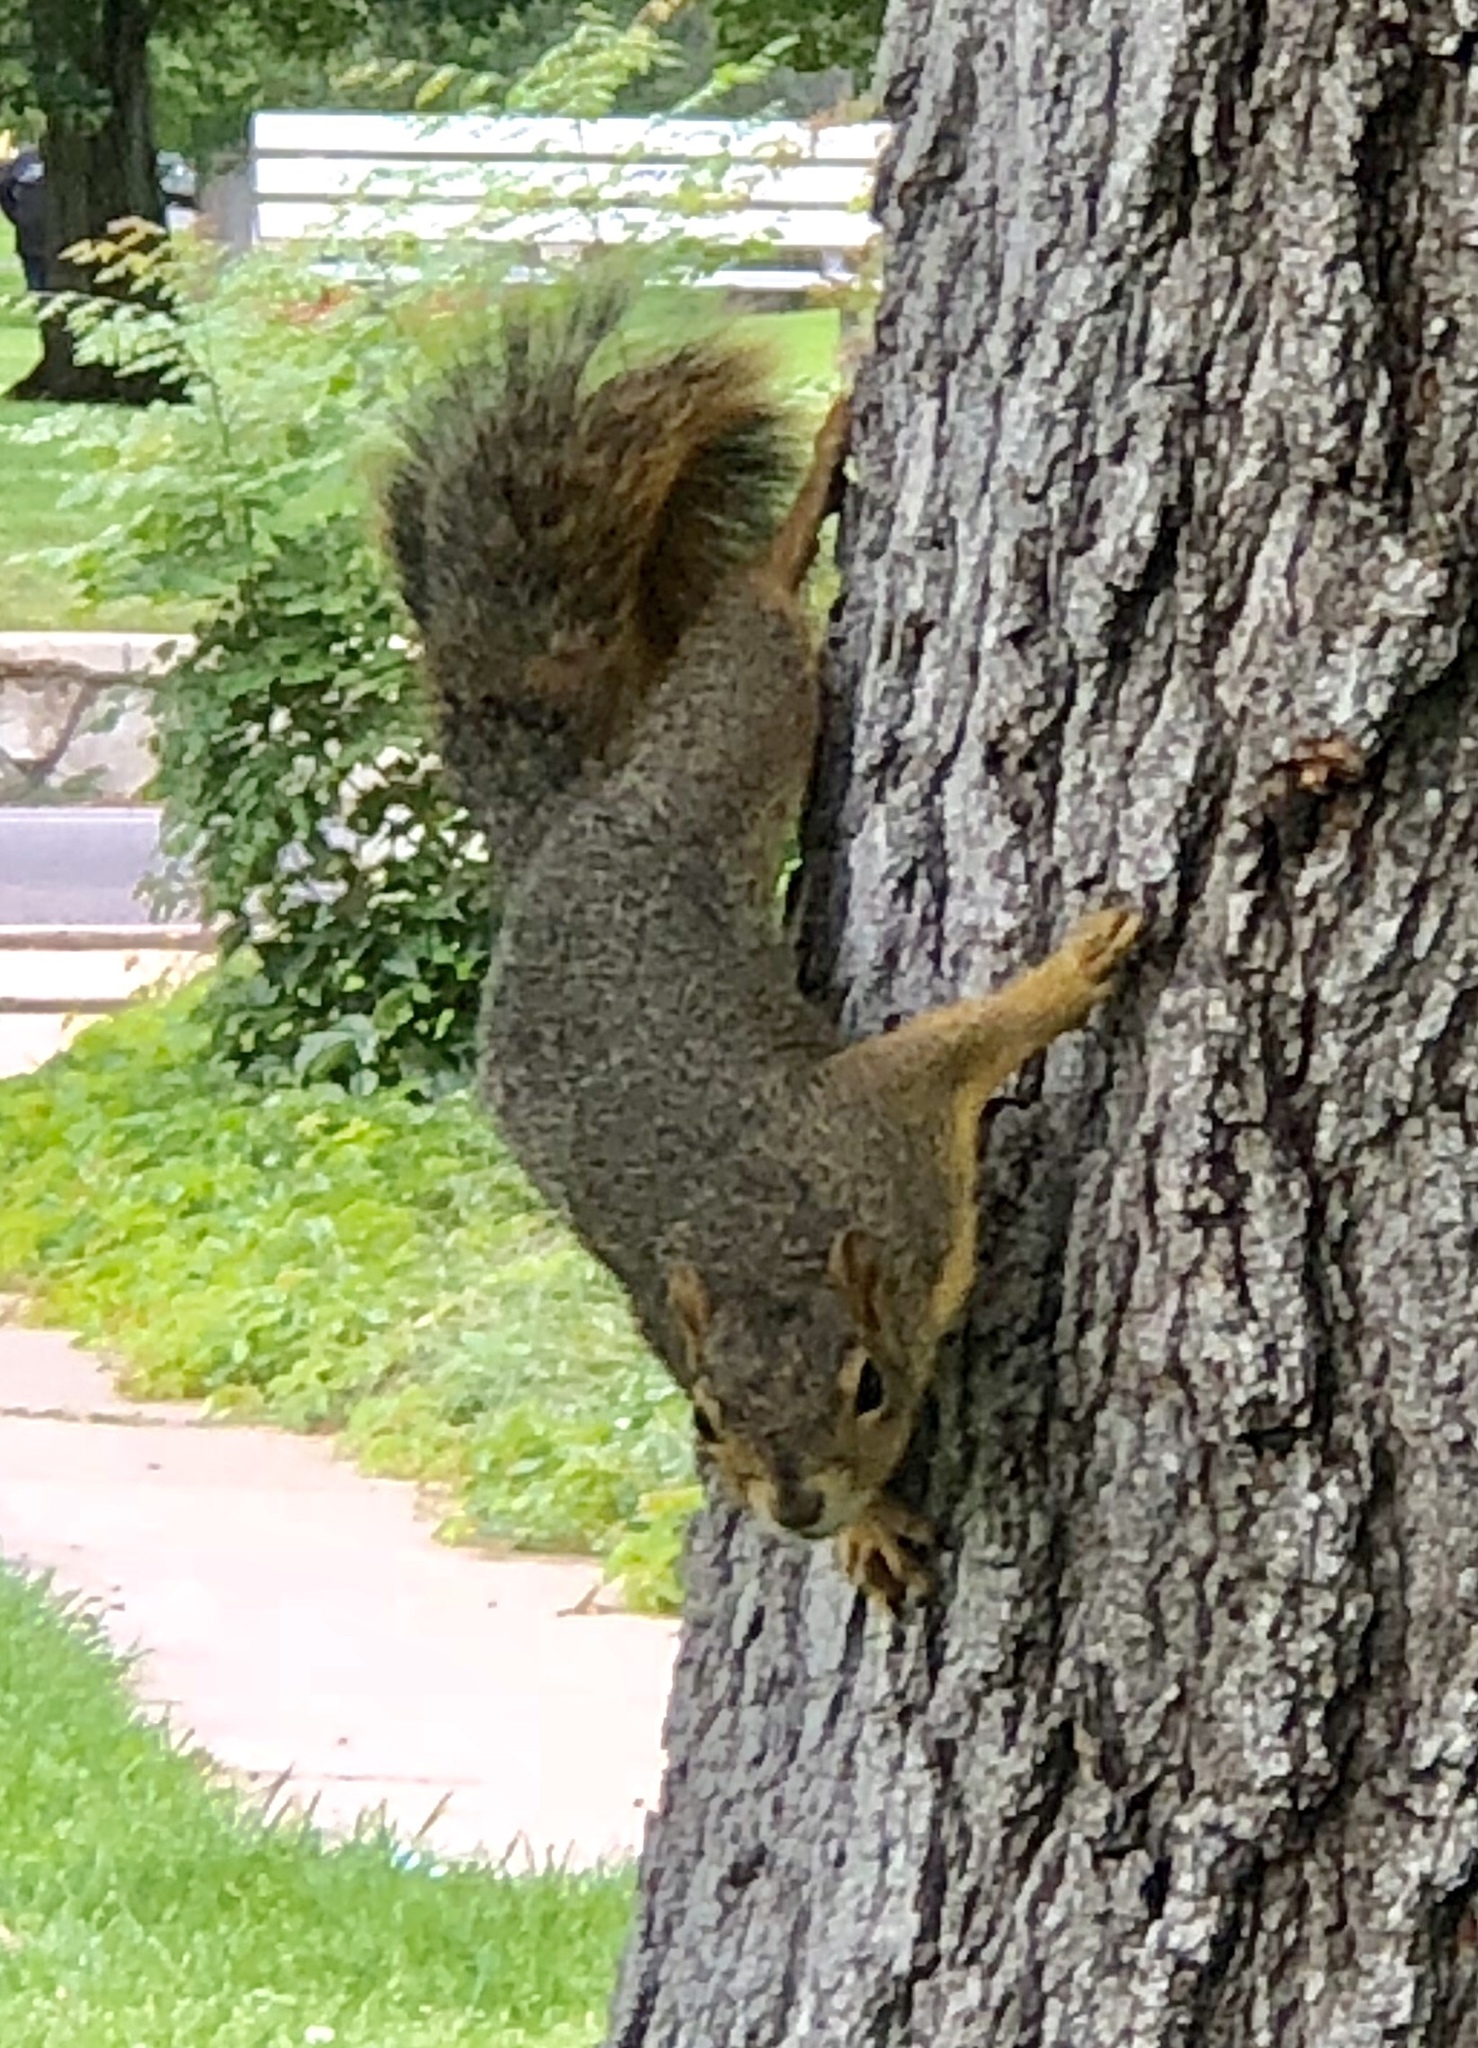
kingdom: Animalia
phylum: Chordata
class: Mammalia
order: Rodentia
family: Sciuridae
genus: Sciurus
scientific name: Sciurus niger
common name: Fox squirrel
